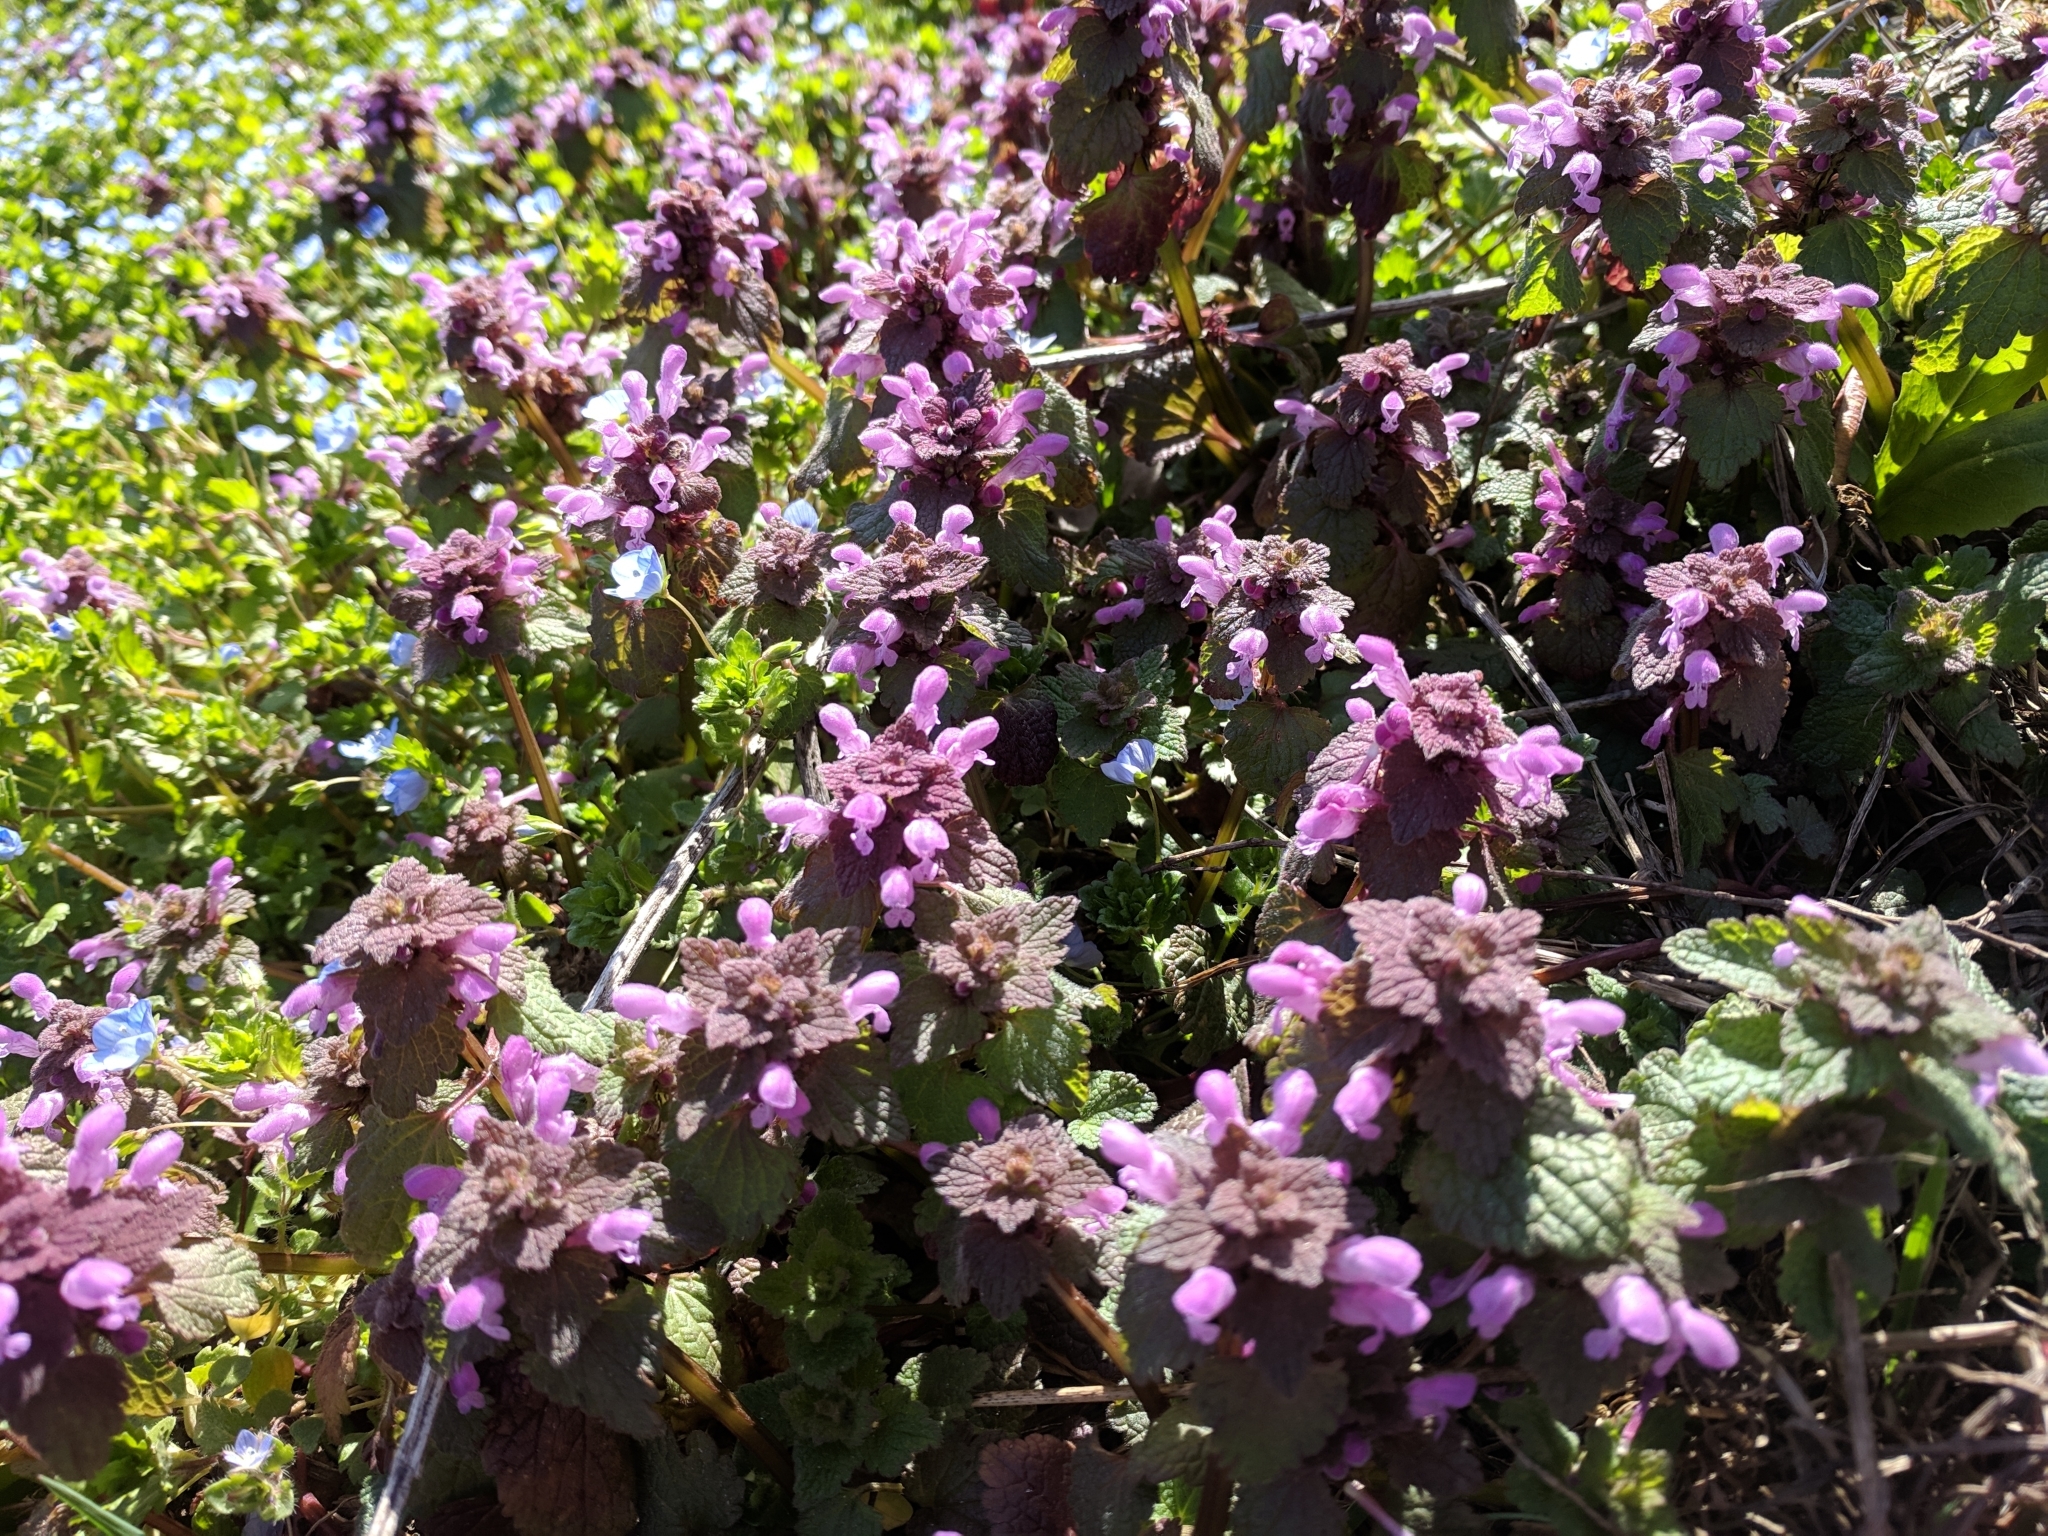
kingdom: Plantae
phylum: Tracheophyta
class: Magnoliopsida
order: Lamiales
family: Lamiaceae
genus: Lamium
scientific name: Lamium purpureum
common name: Red dead-nettle
